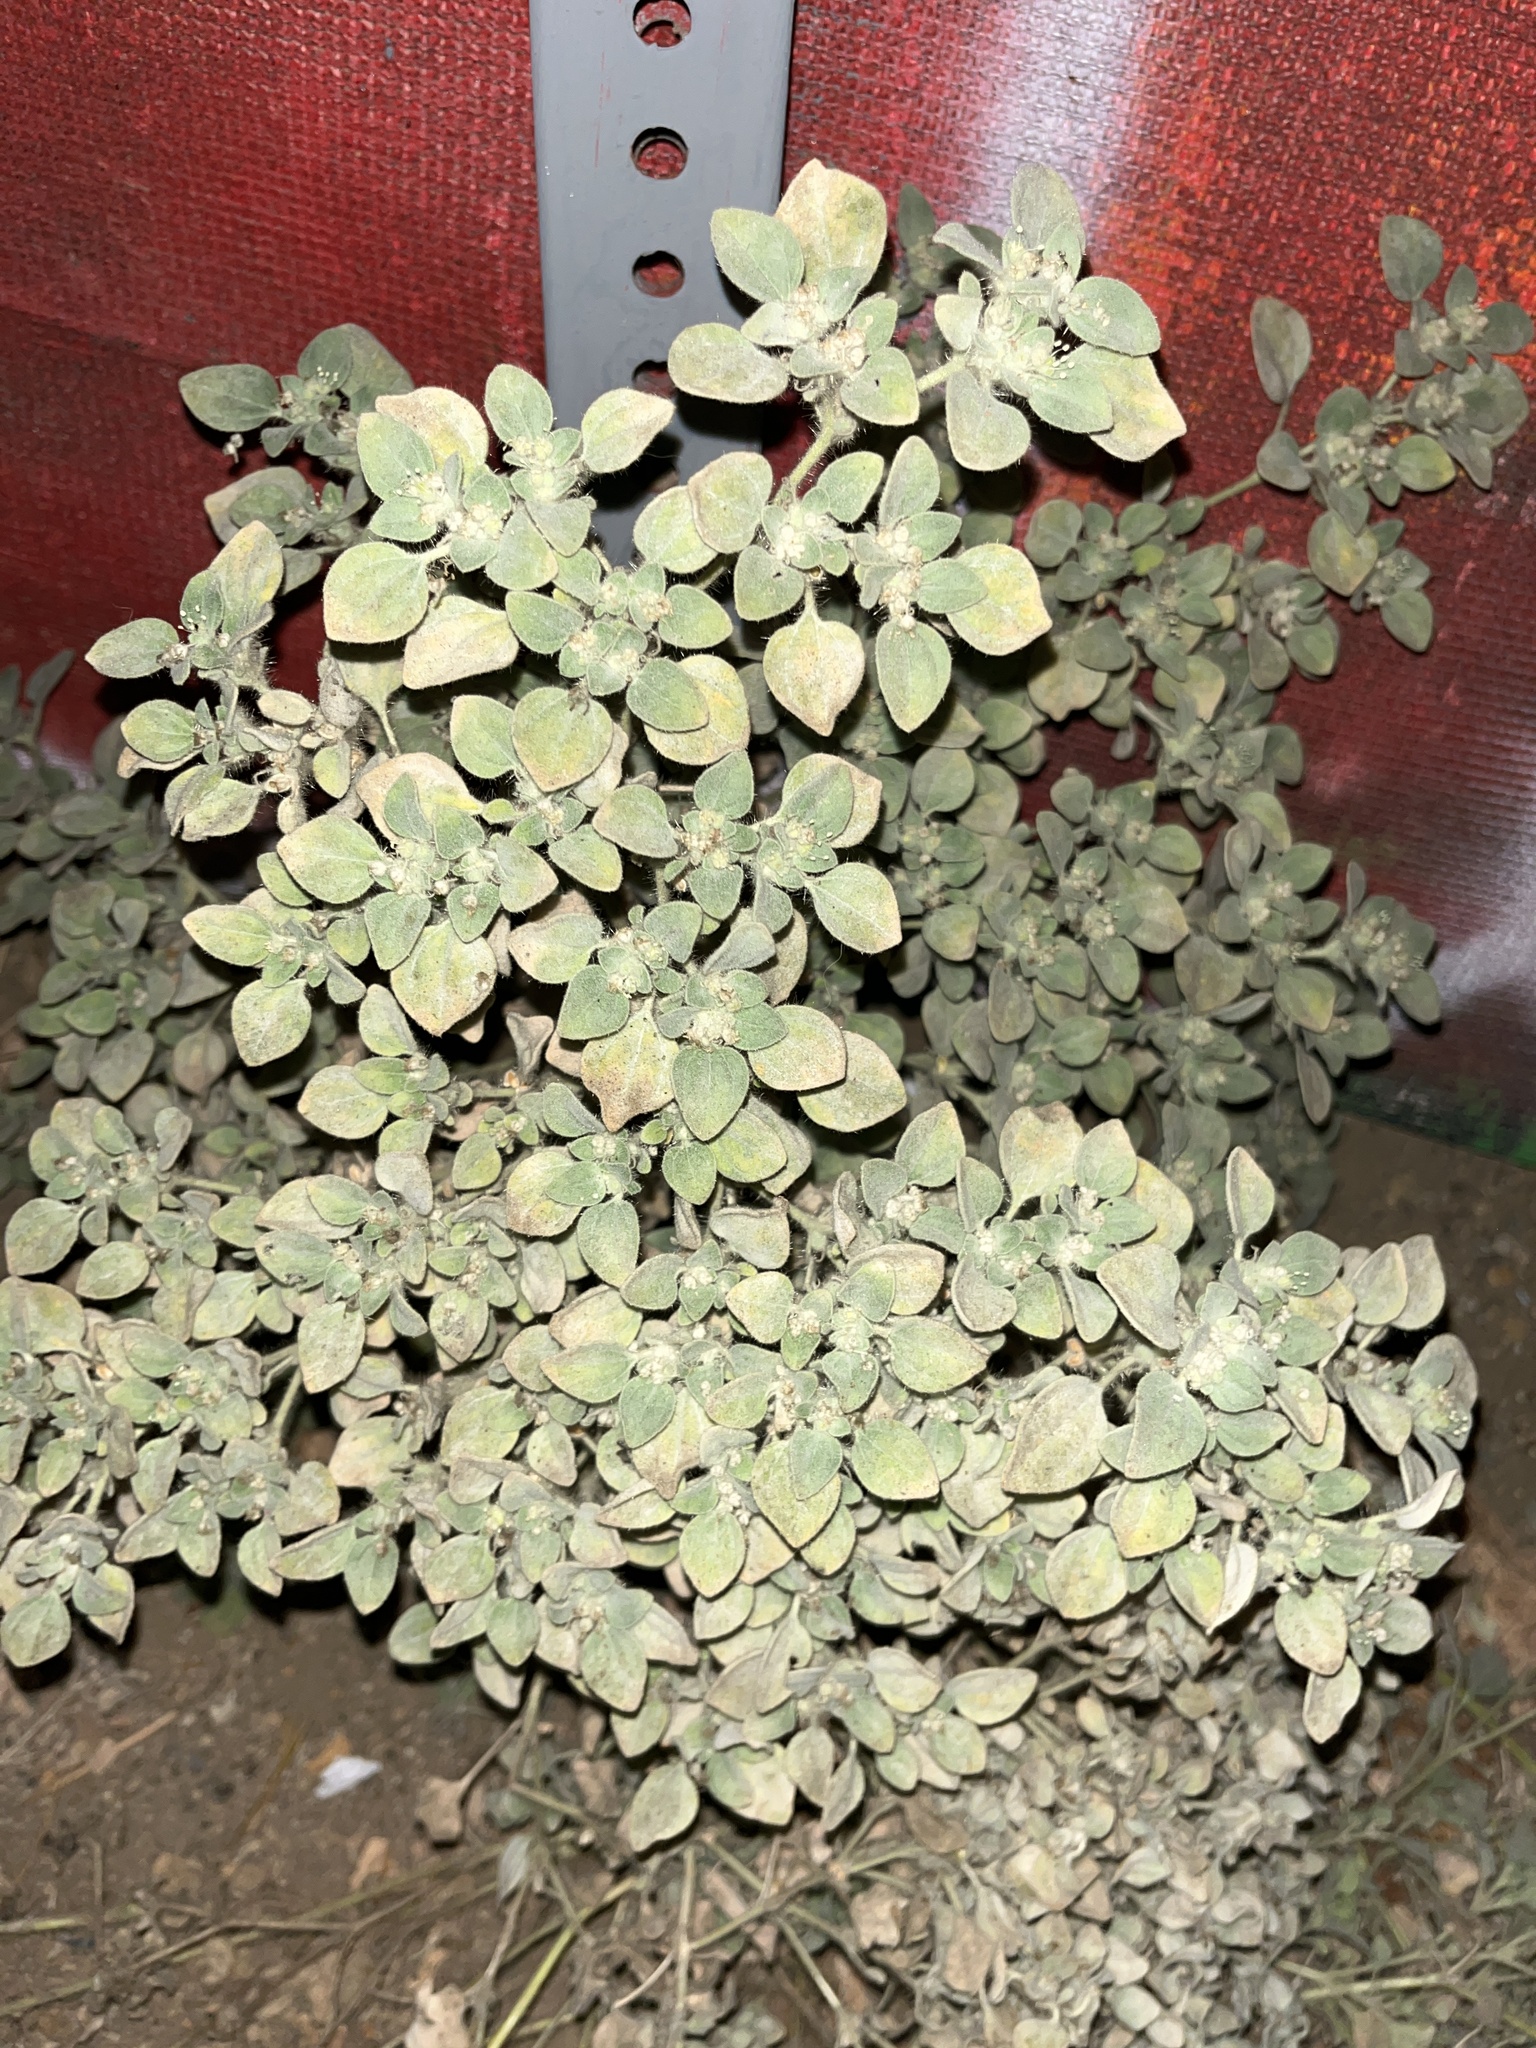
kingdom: Plantae
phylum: Tracheophyta
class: Magnoliopsida
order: Malpighiales
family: Euphorbiaceae
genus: Croton
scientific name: Croton setiger
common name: Dove weed
